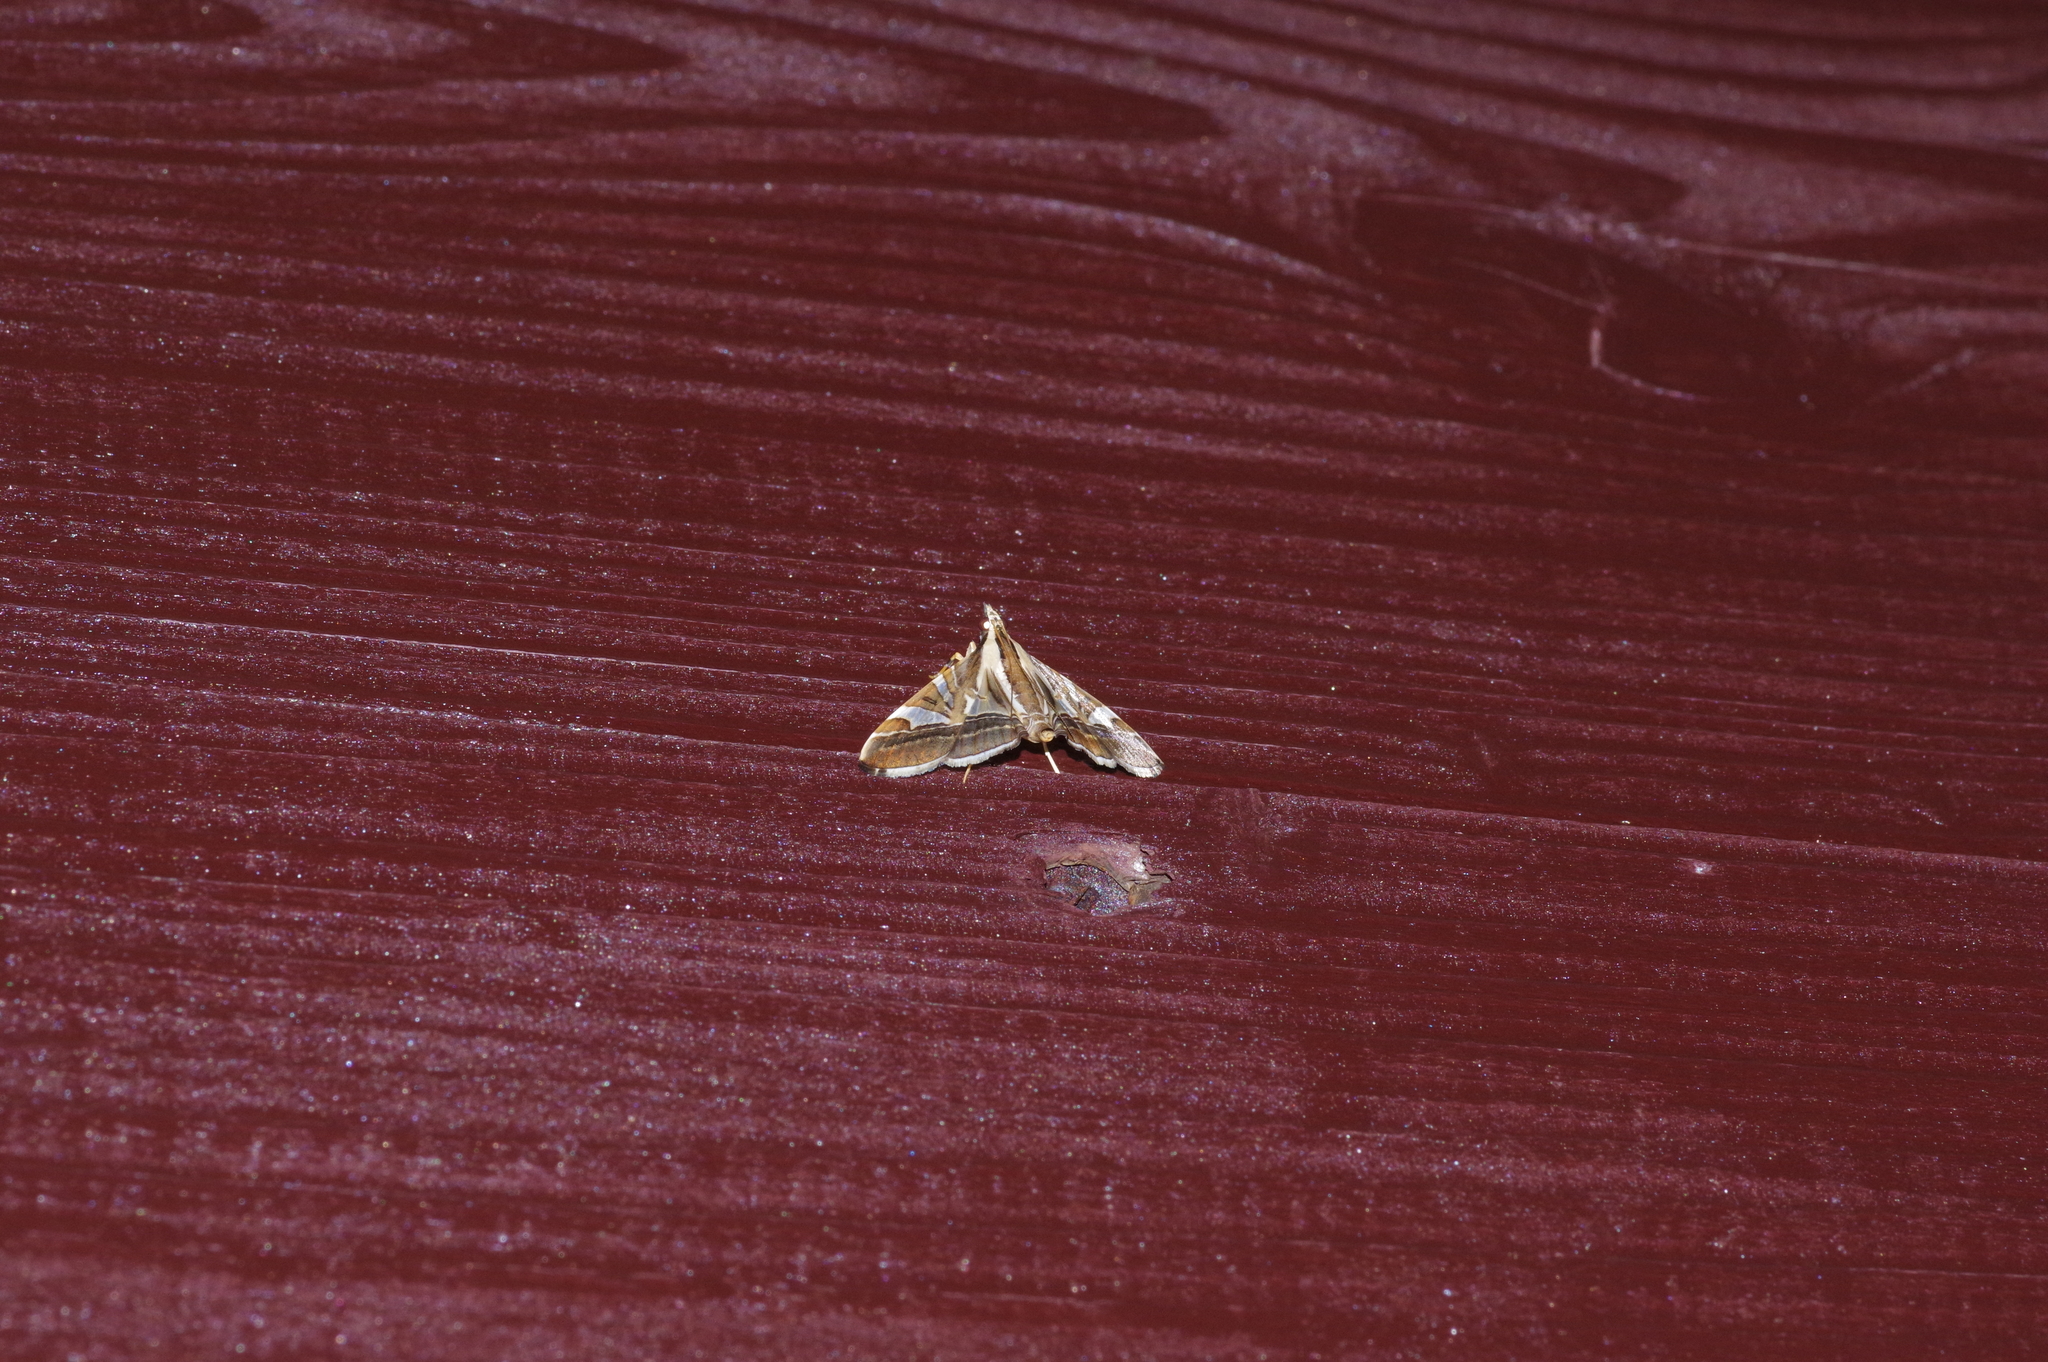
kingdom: Animalia
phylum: Arthropoda
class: Insecta
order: Lepidoptera
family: Crambidae
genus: Agrioglypta
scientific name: Agrioglypta itysalis
